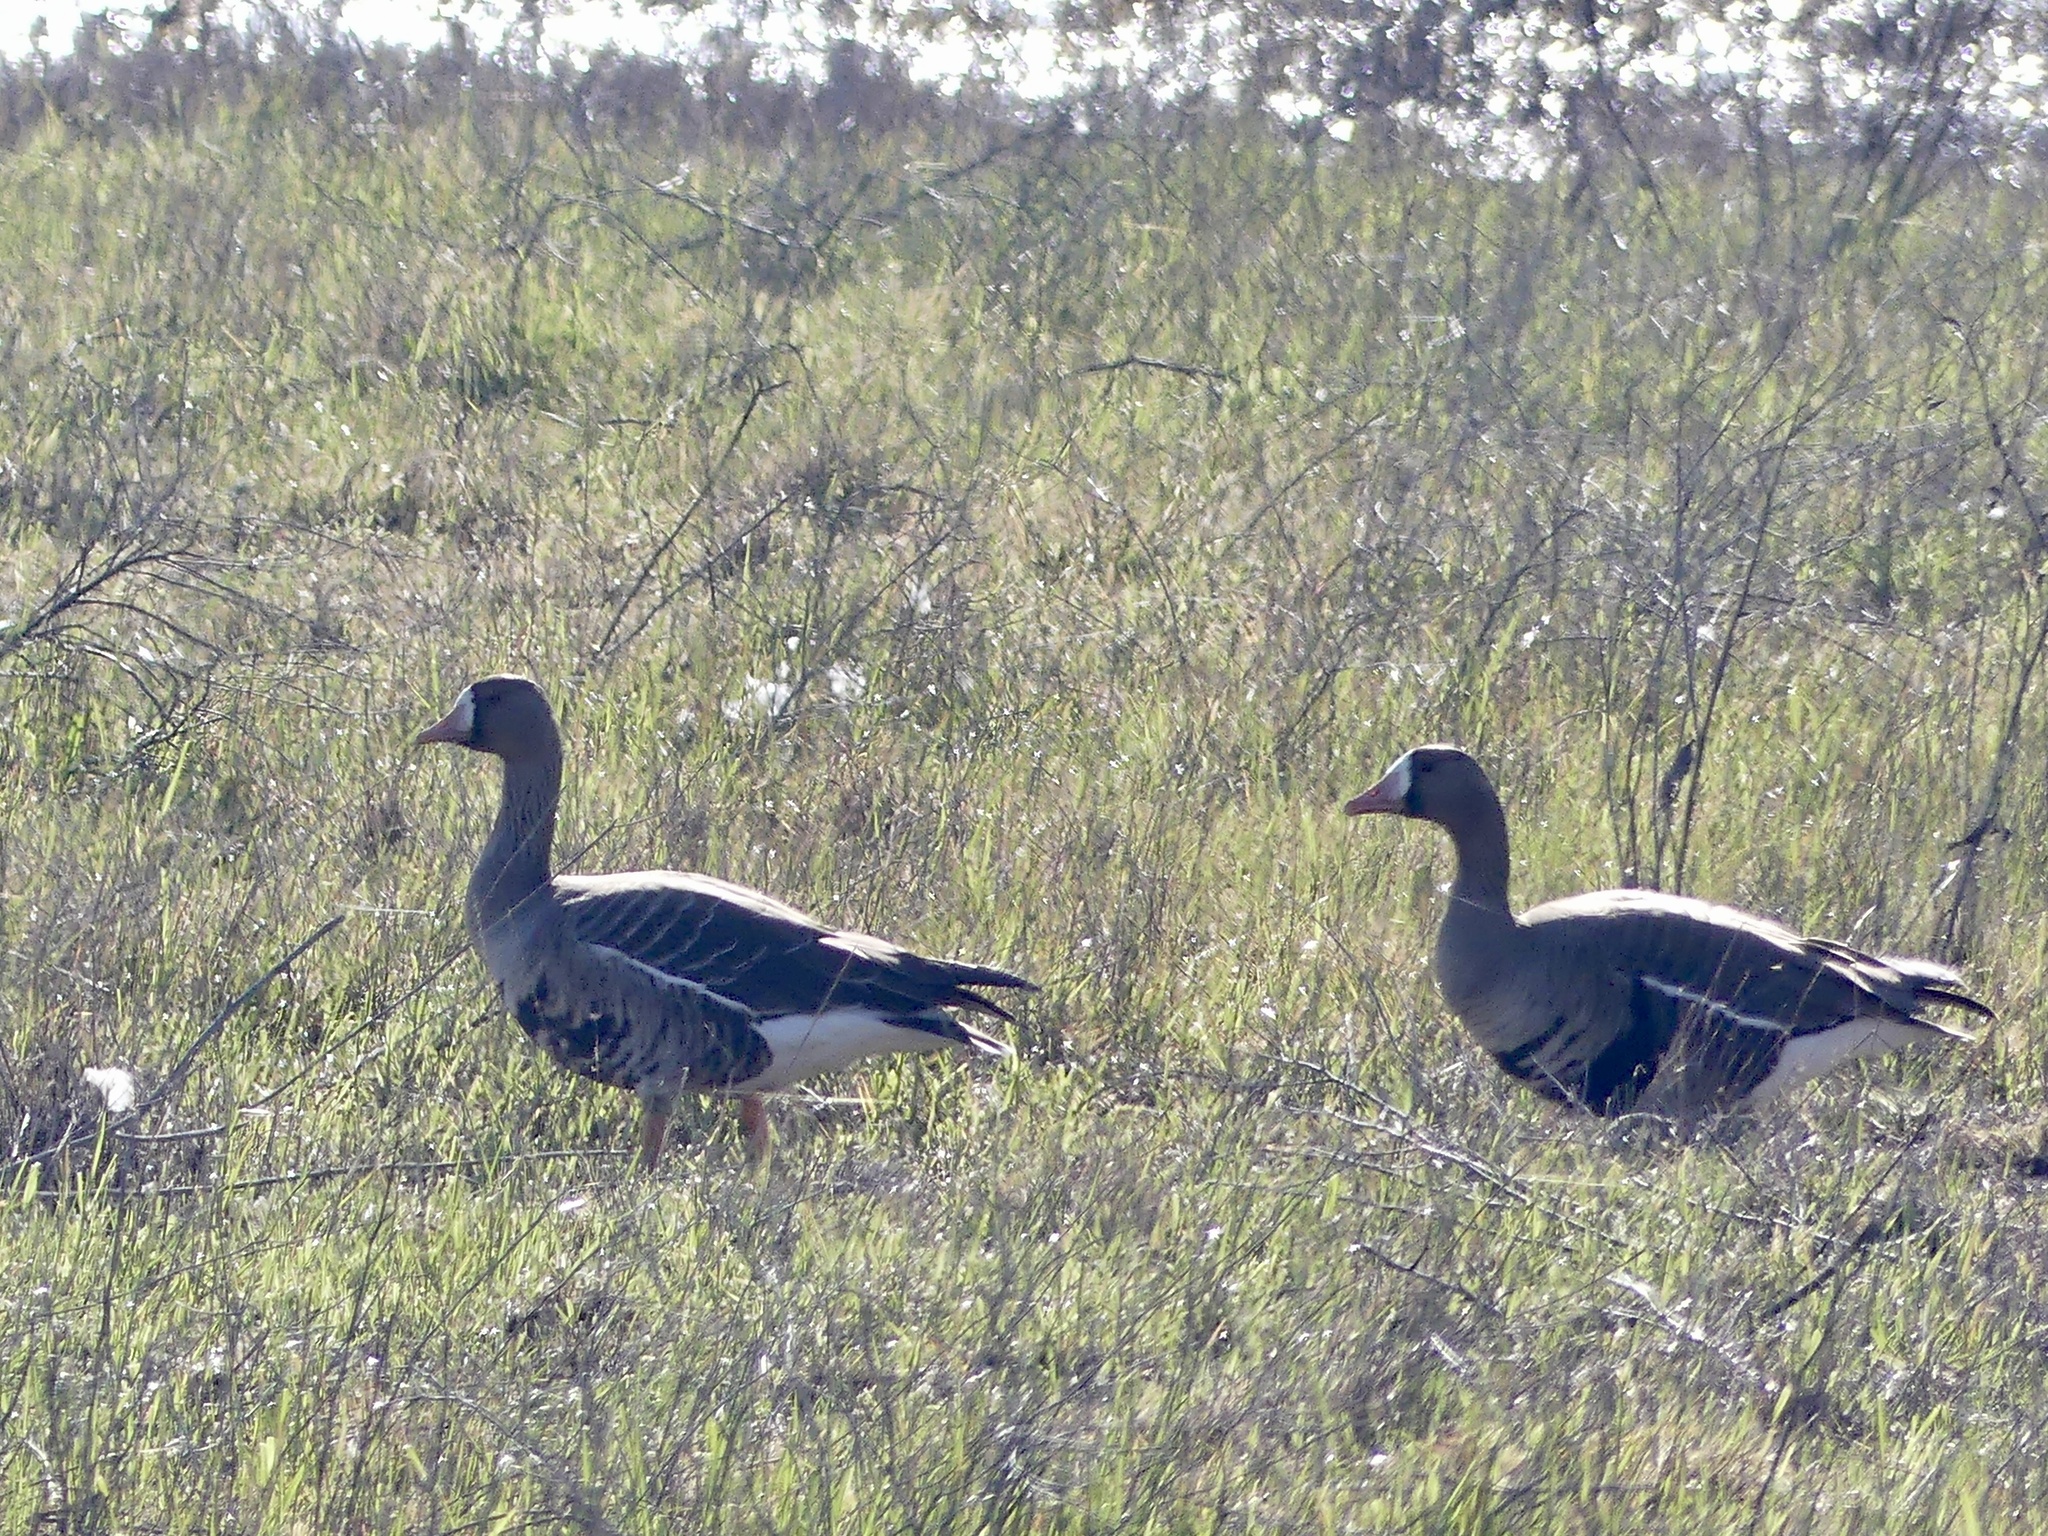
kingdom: Animalia
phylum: Chordata
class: Aves
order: Anseriformes
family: Anatidae
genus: Anser
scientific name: Anser albifrons
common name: Greater white-fronted goose
